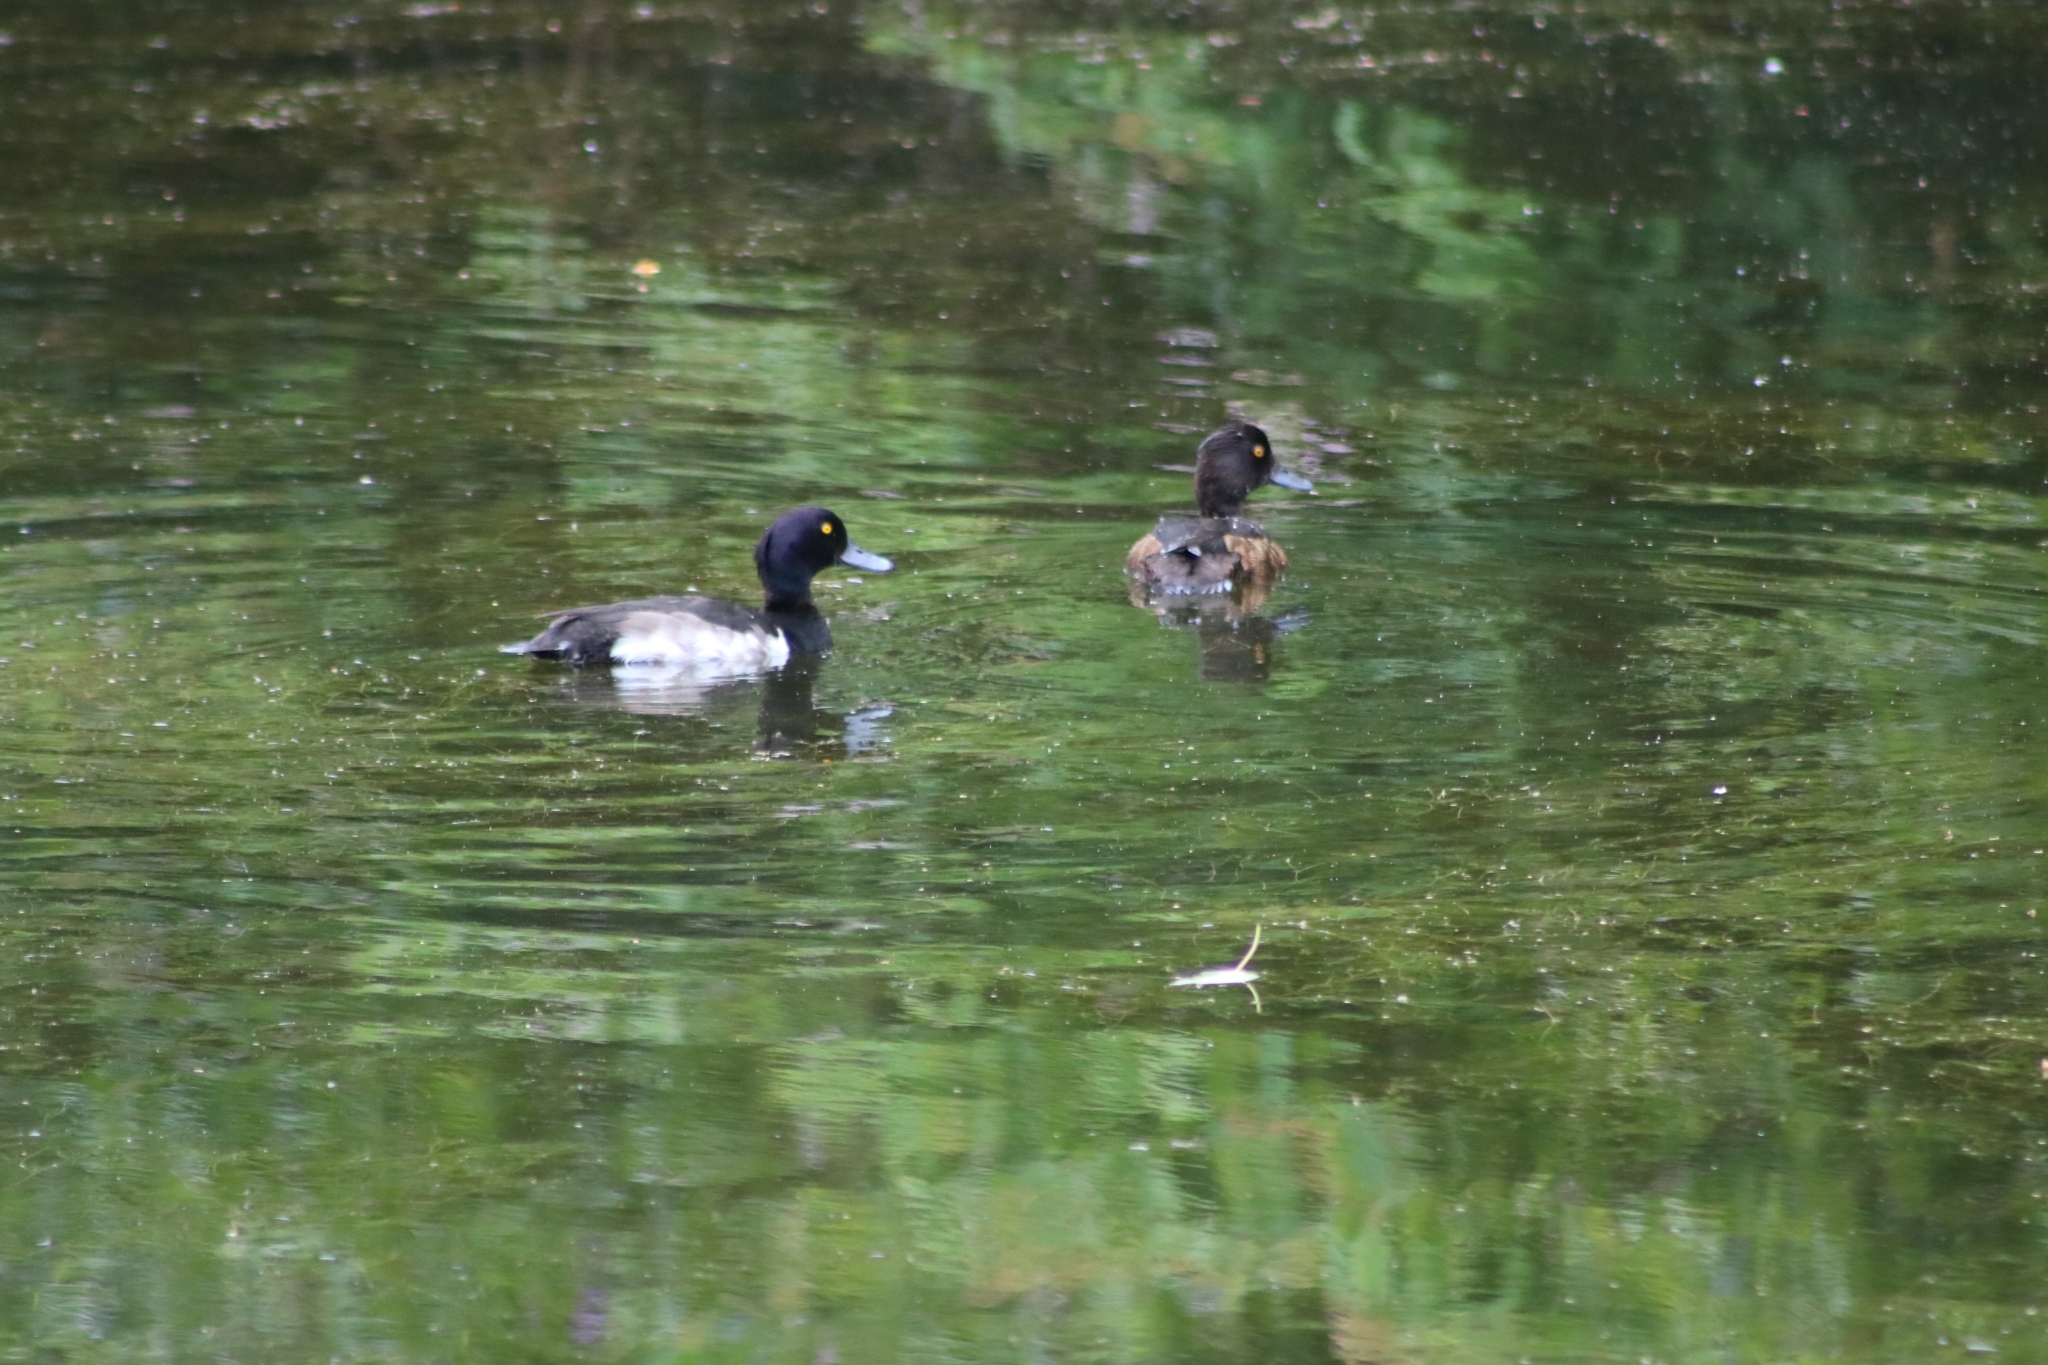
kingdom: Animalia
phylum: Chordata
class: Aves
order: Anseriformes
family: Anatidae
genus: Aythya
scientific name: Aythya fuligula
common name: Tufted duck
